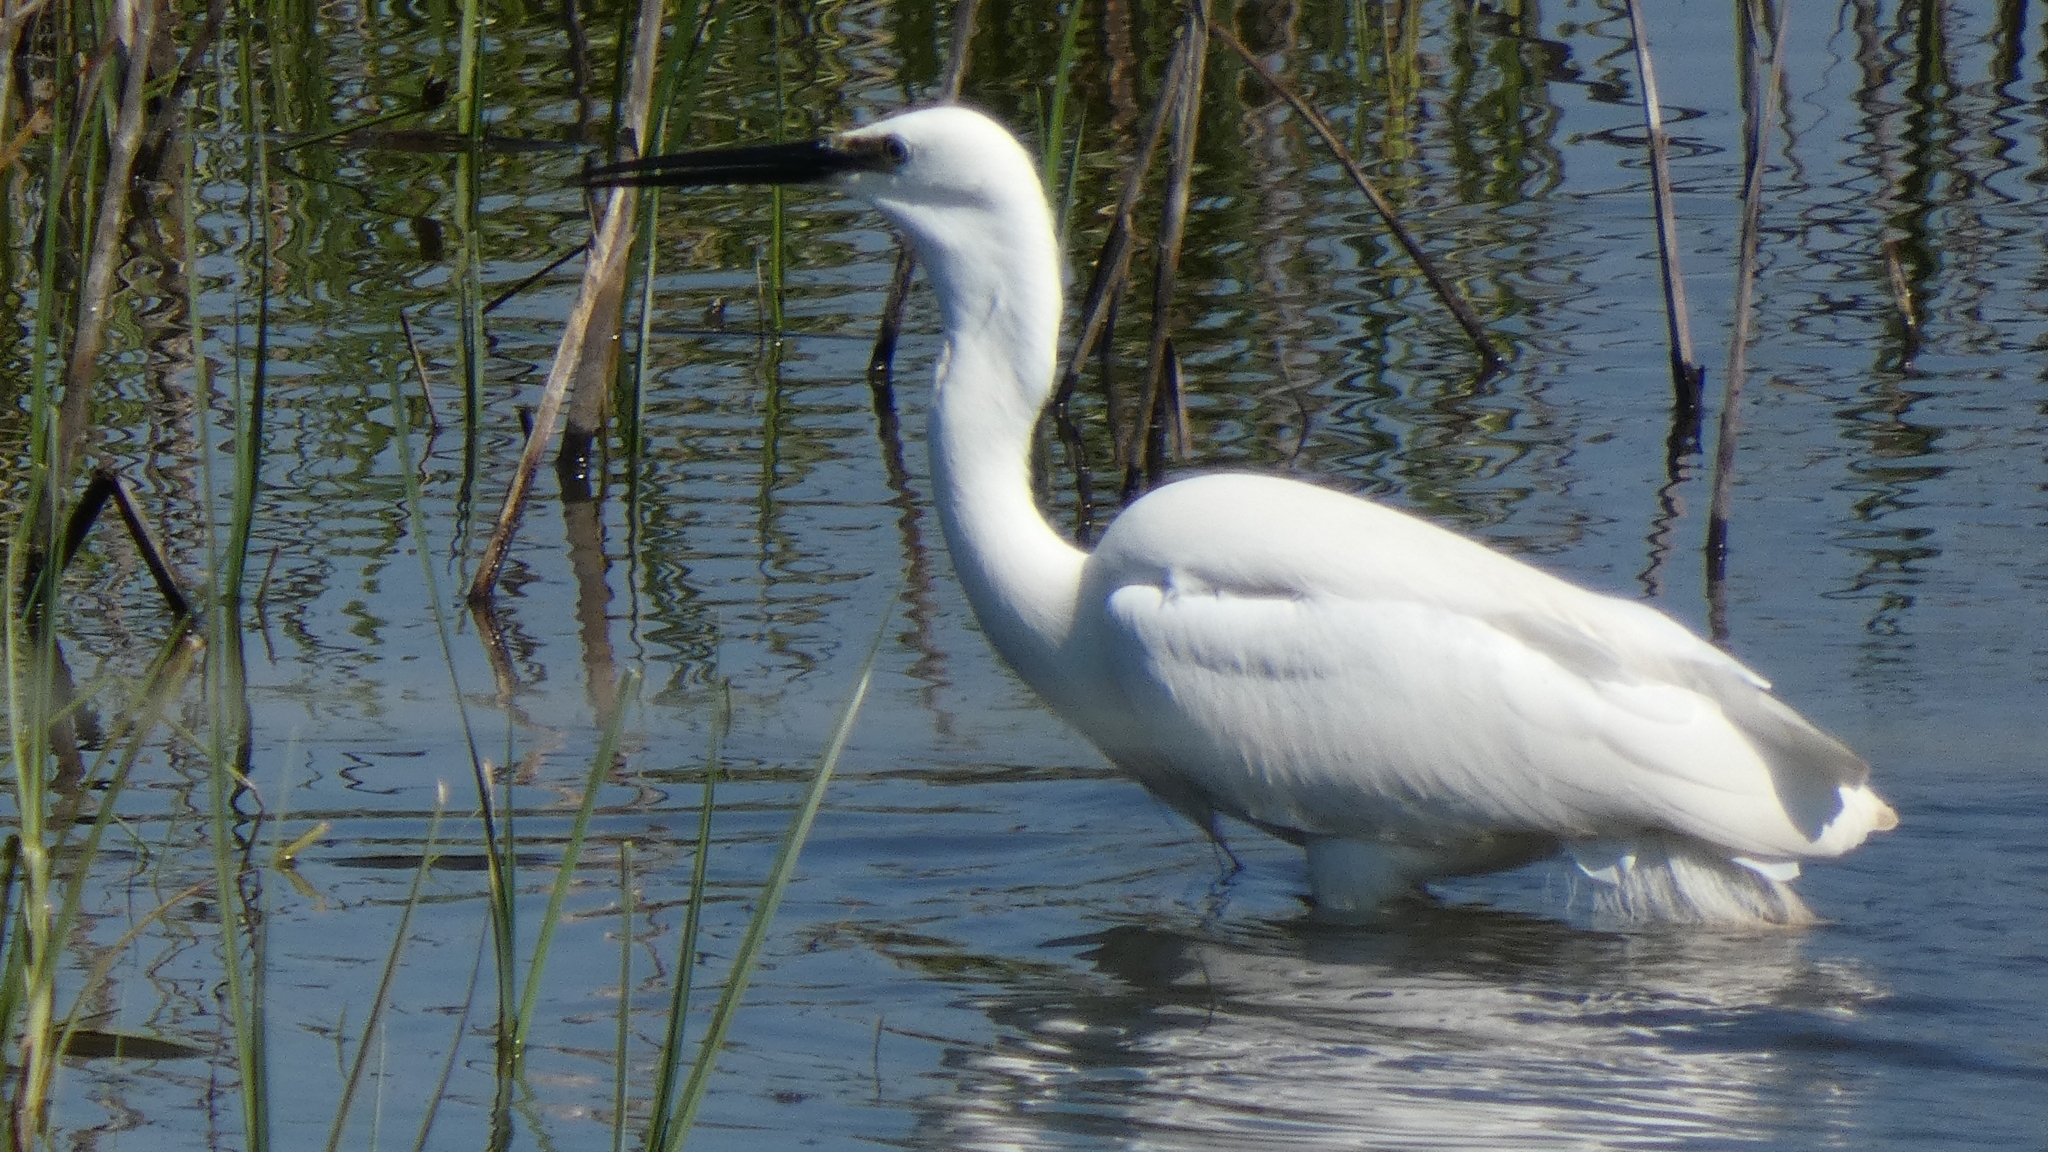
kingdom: Animalia
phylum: Chordata
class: Aves
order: Pelecaniformes
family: Ardeidae
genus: Egretta
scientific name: Egretta garzetta
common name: Little egret
